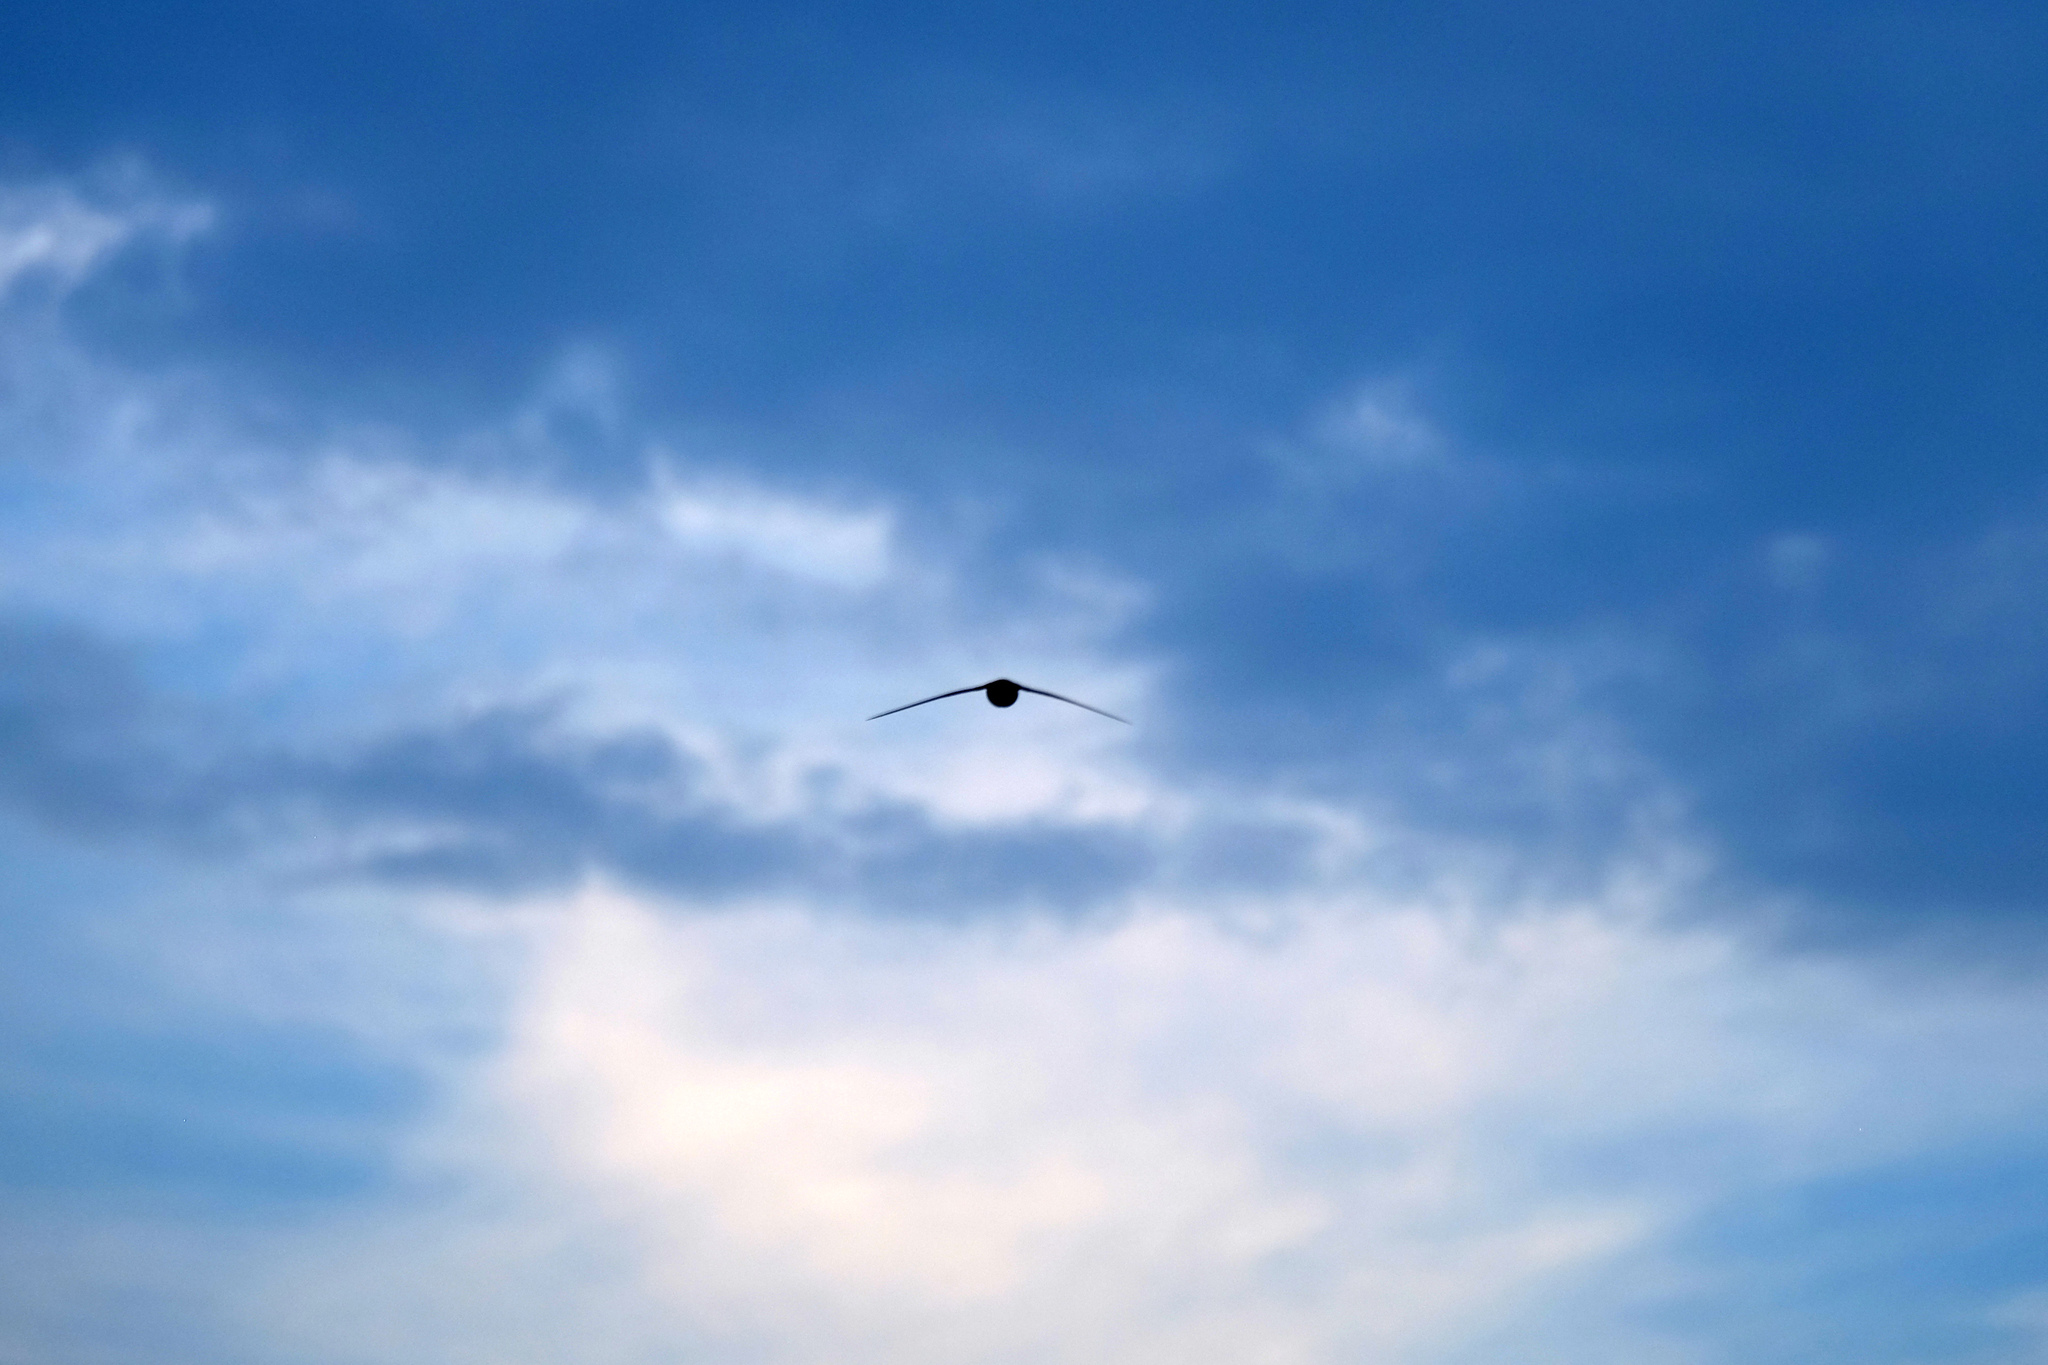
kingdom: Animalia
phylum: Chordata
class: Aves
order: Apodiformes
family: Apodidae
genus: Apus
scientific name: Apus apus
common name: Common swift
